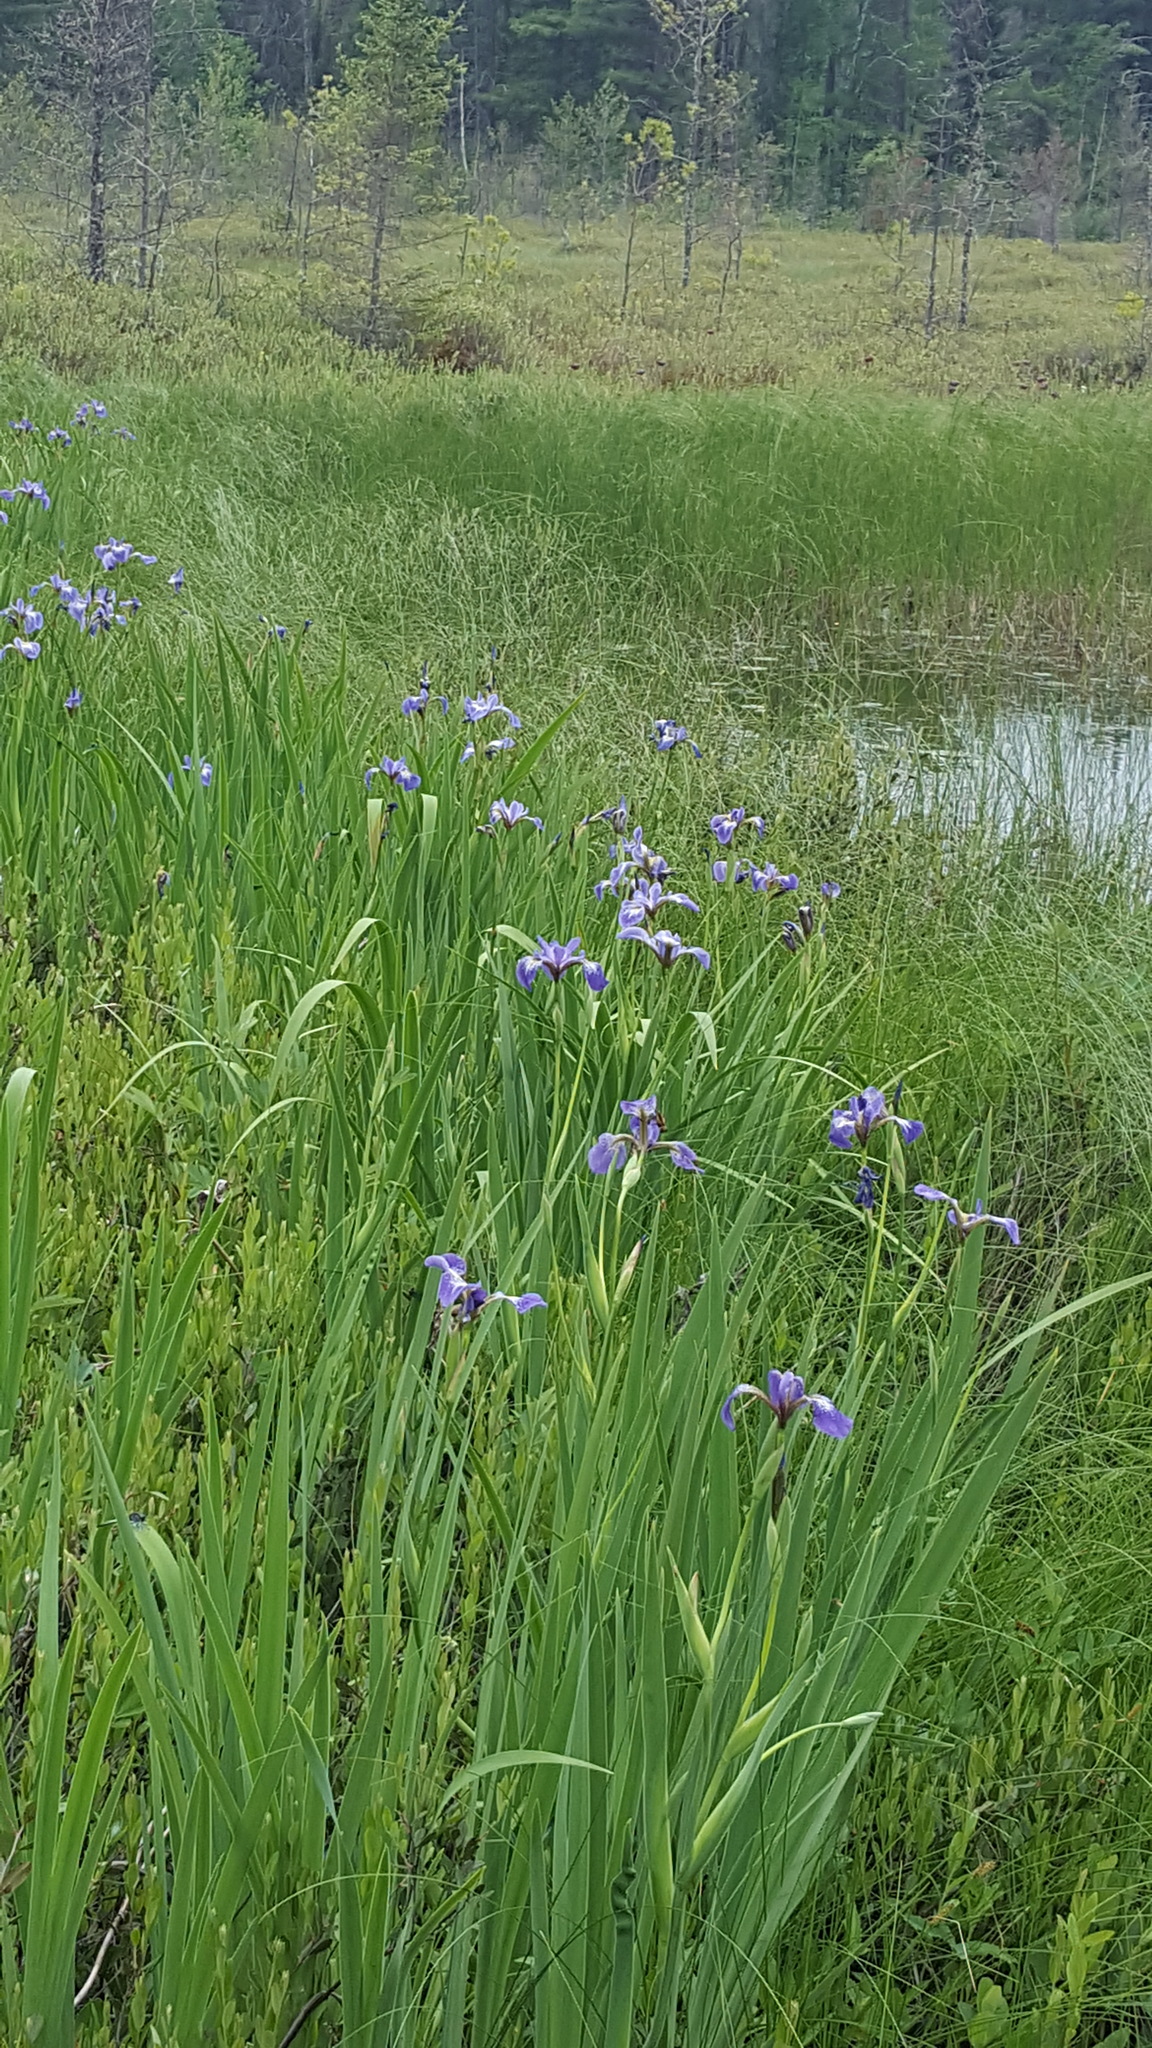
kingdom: Plantae
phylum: Tracheophyta
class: Liliopsida
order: Asparagales
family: Iridaceae
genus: Iris
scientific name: Iris versicolor
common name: Purple iris
